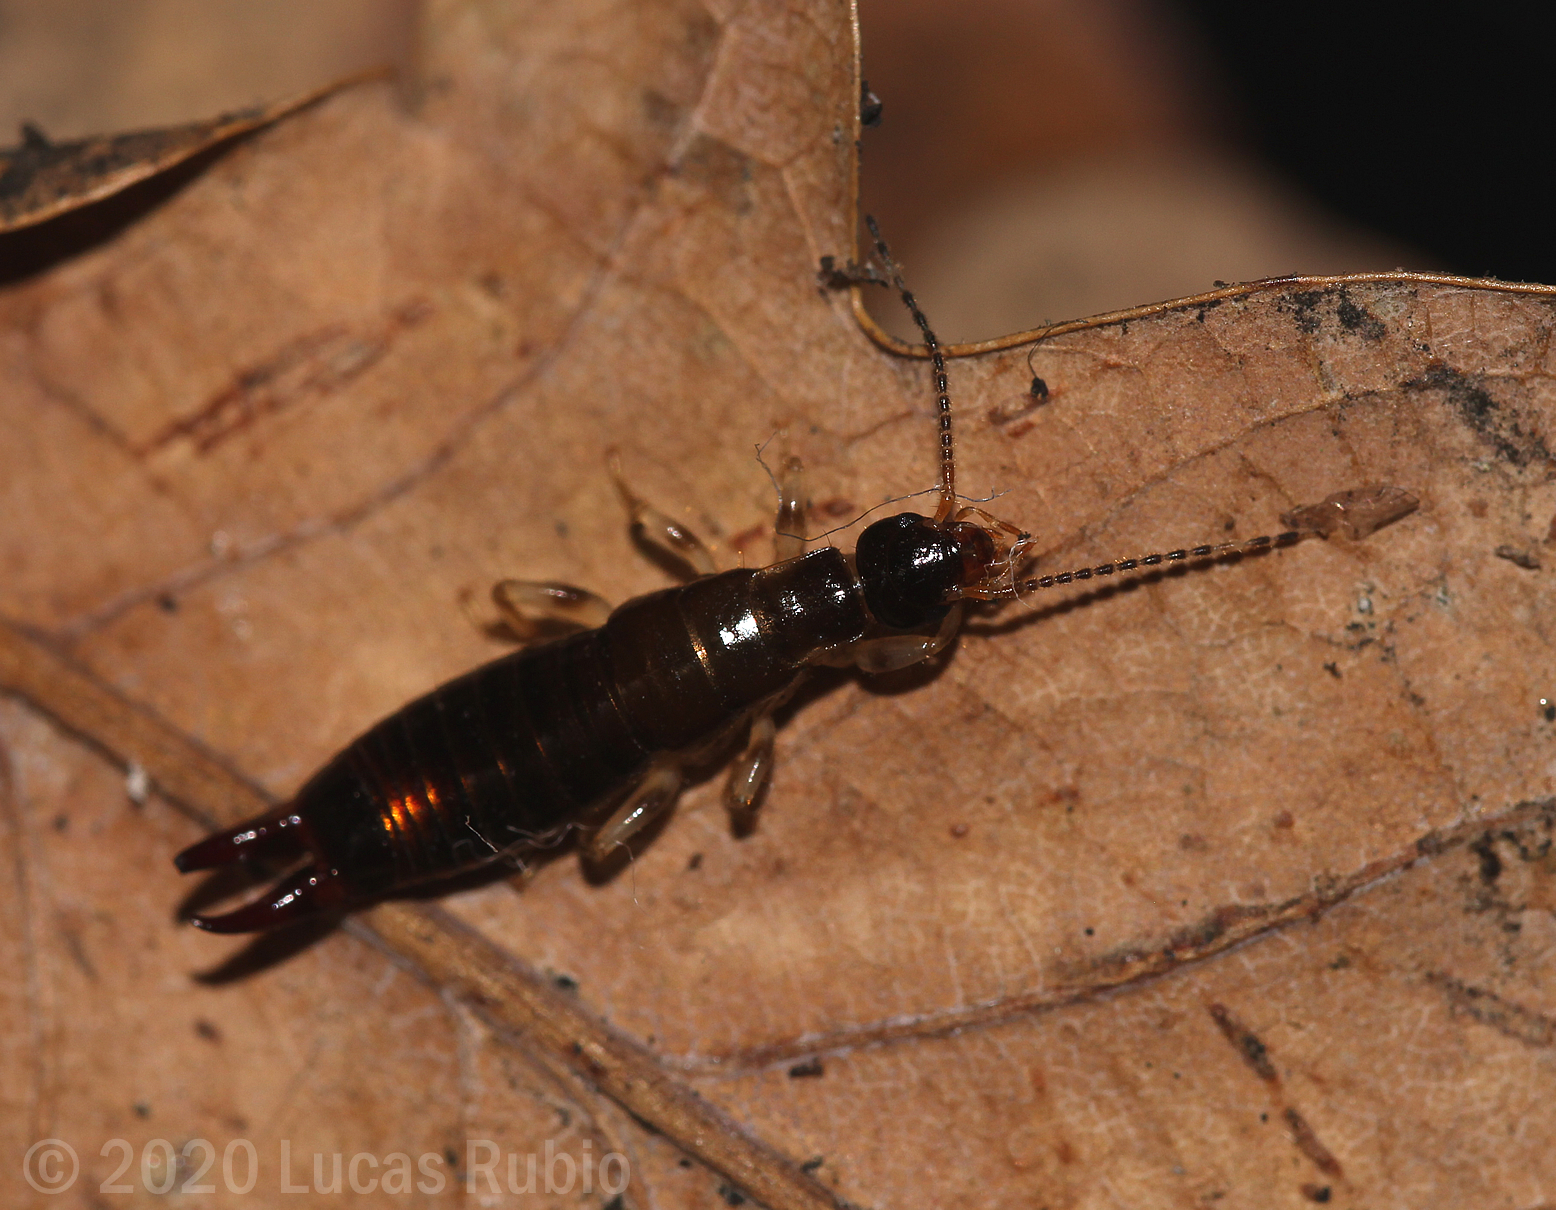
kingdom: Animalia
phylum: Arthropoda
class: Insecta
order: Dermaptera
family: Anisolabididae
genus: Euborellia
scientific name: Euborellia annulipes
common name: Ringlegged earwig
